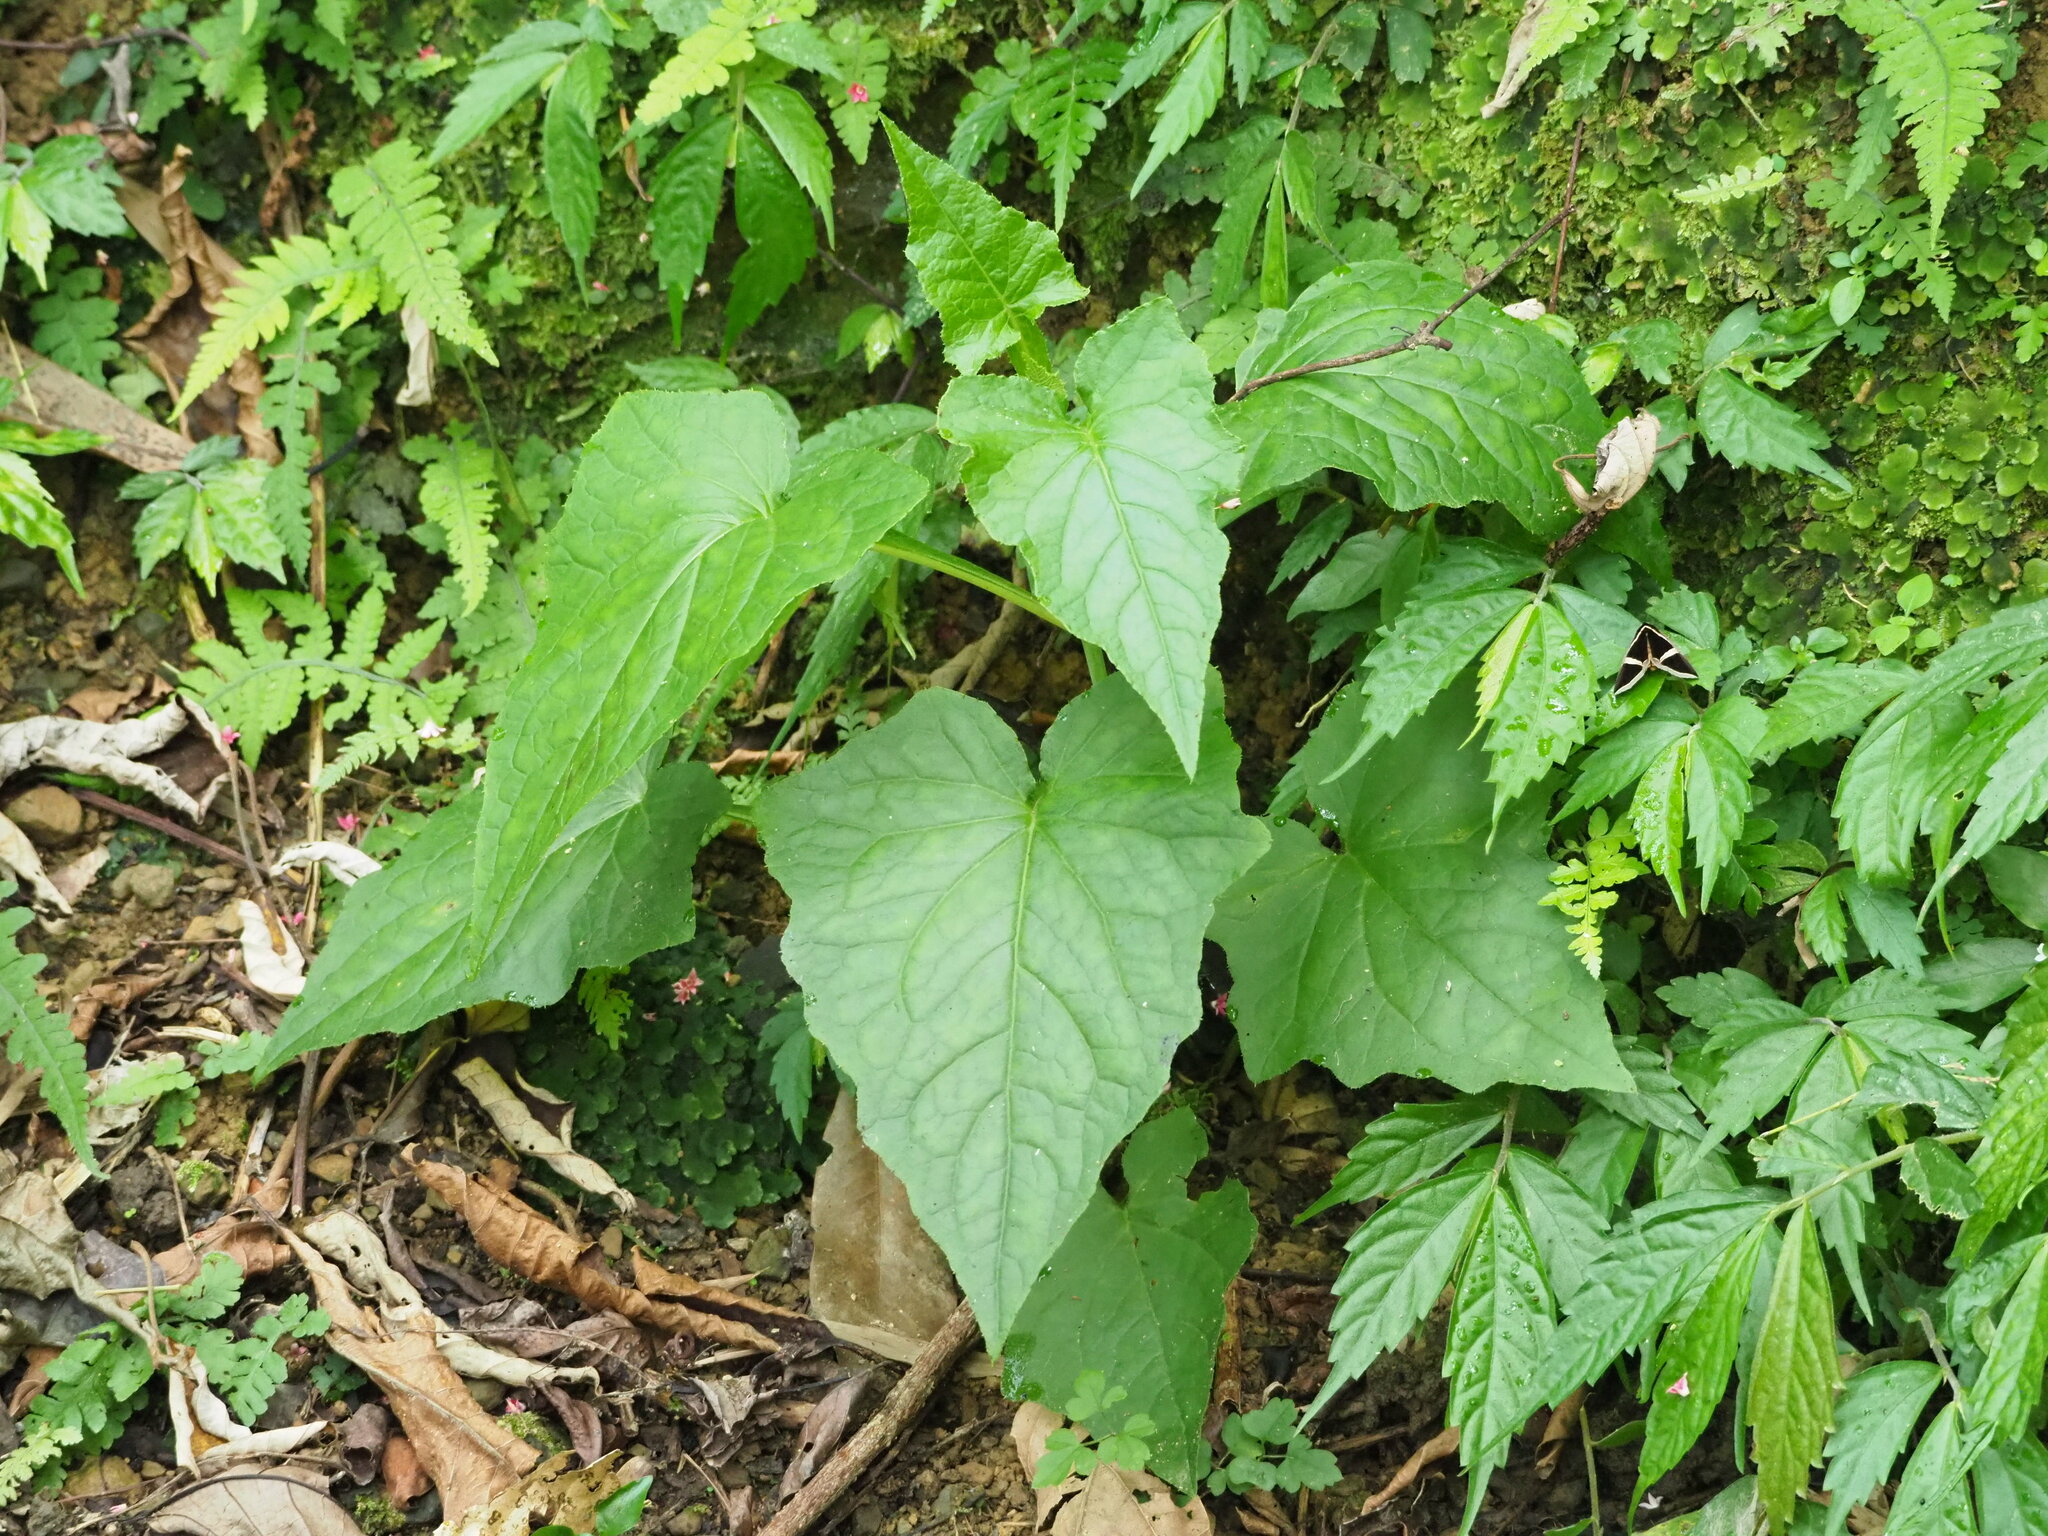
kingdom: Plantae
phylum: Tracheophyta
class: Magnoliopsida
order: Asterales
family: Asteraceae
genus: Paraprenanthes
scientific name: Paraprenanthes sororia
